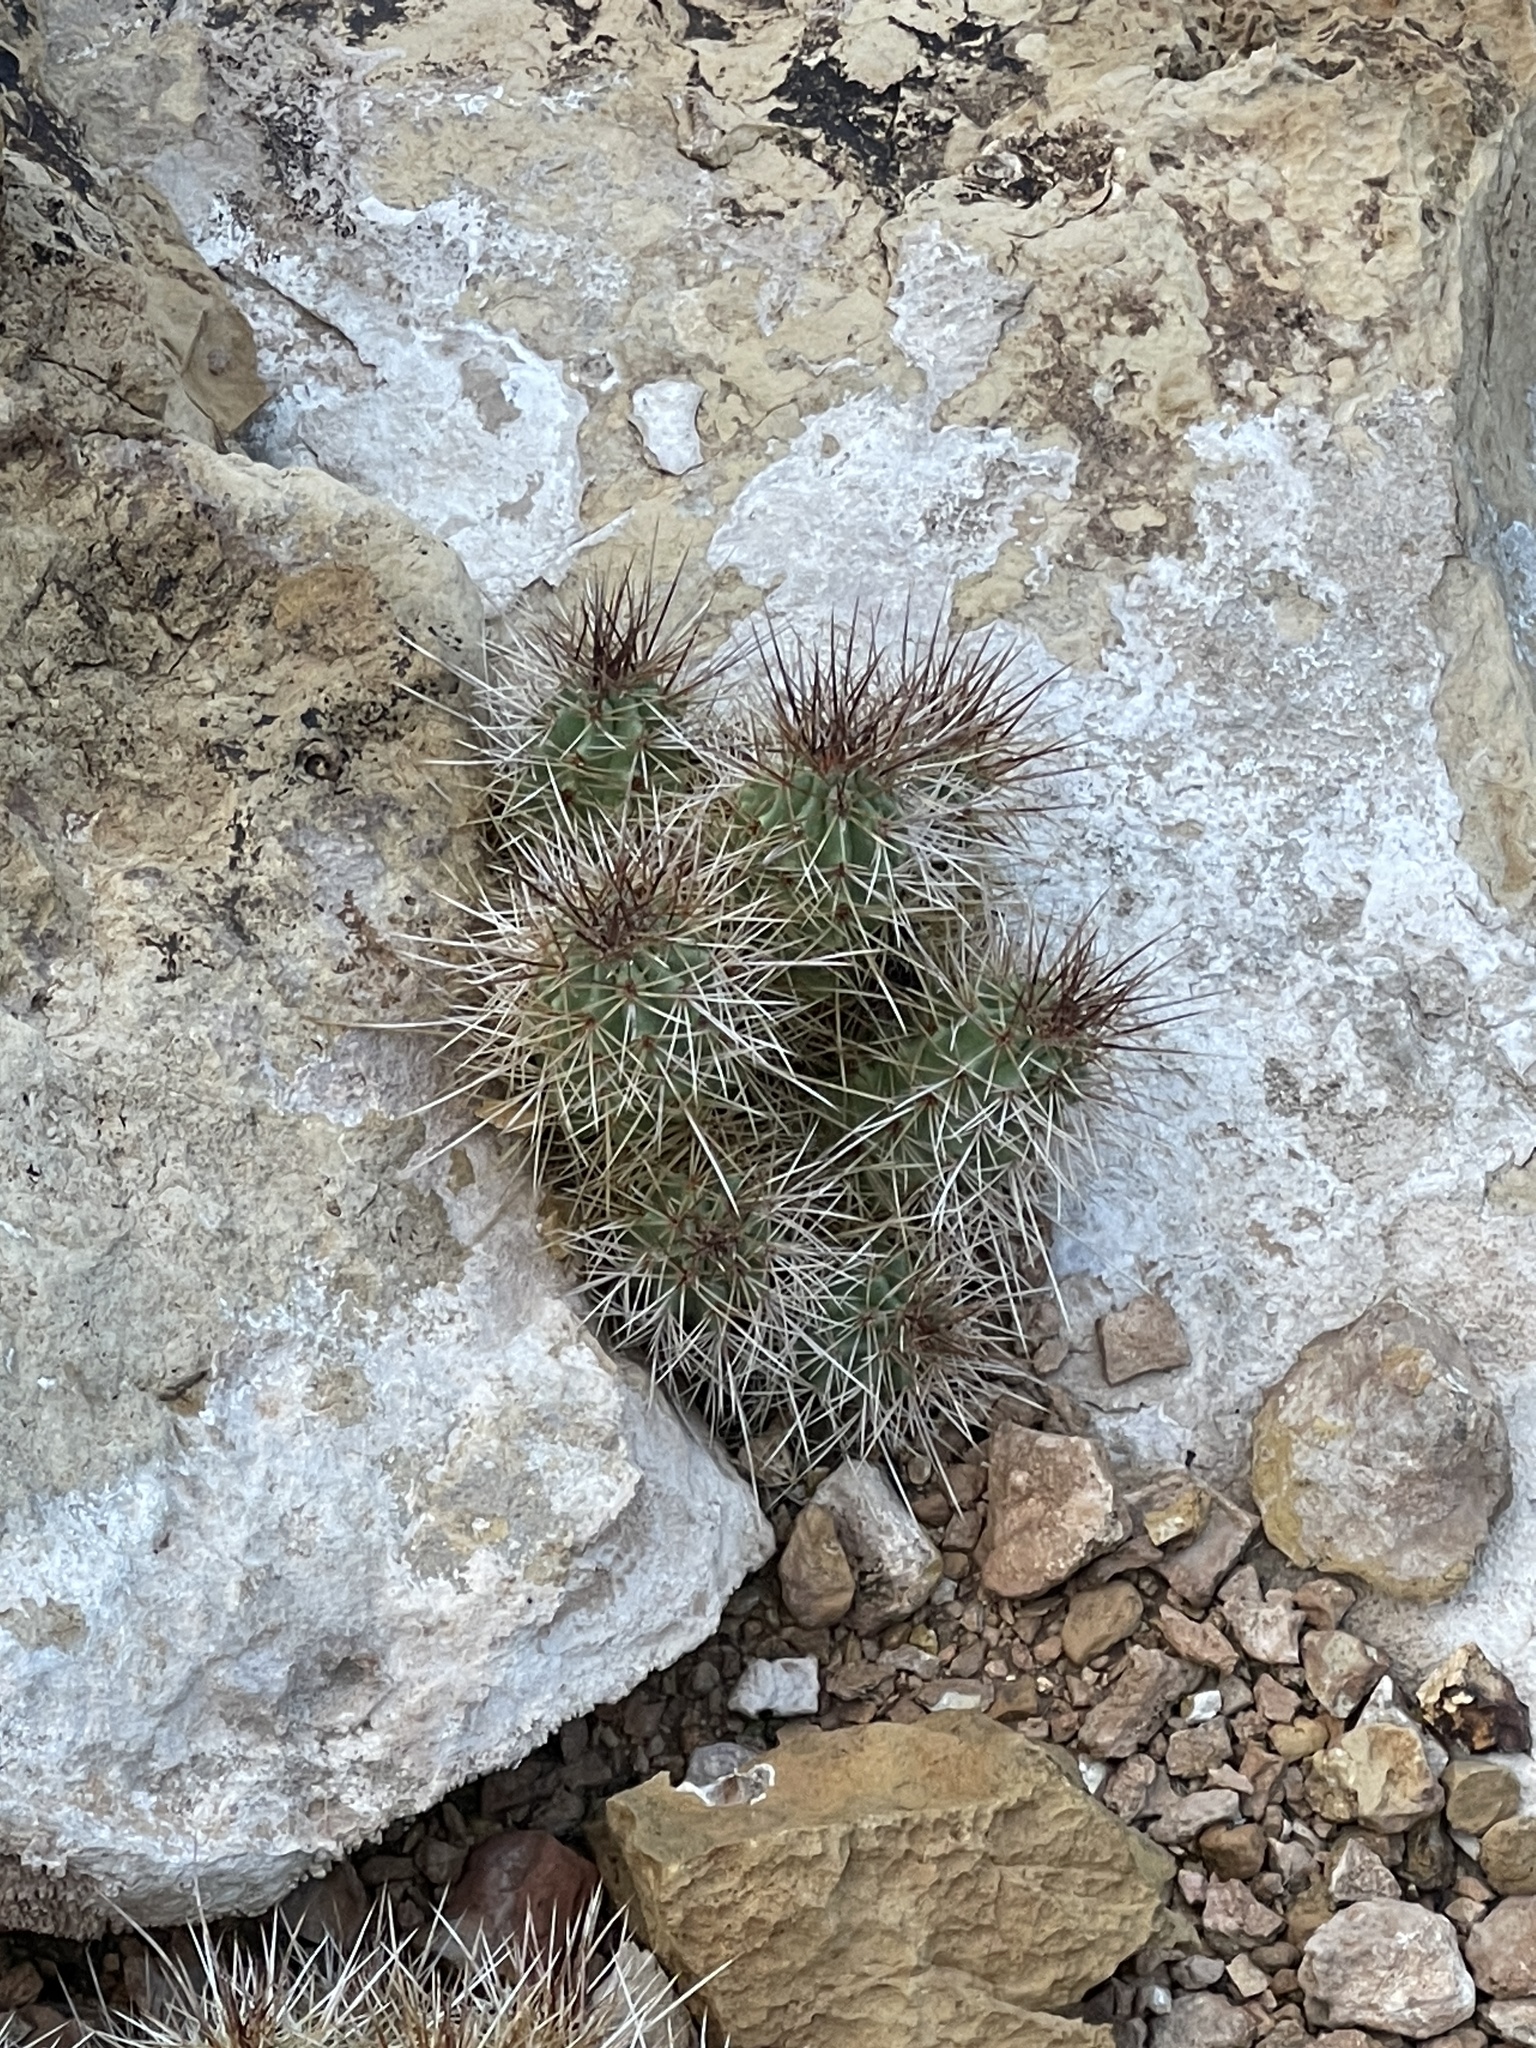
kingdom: Plantae
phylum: Tracheophyta
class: Magnoliopsida
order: Caryophyllales
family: Cactaceae
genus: Echinocereus
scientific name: Echinocereus triglochidiatus
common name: Claretcup hedgehog
